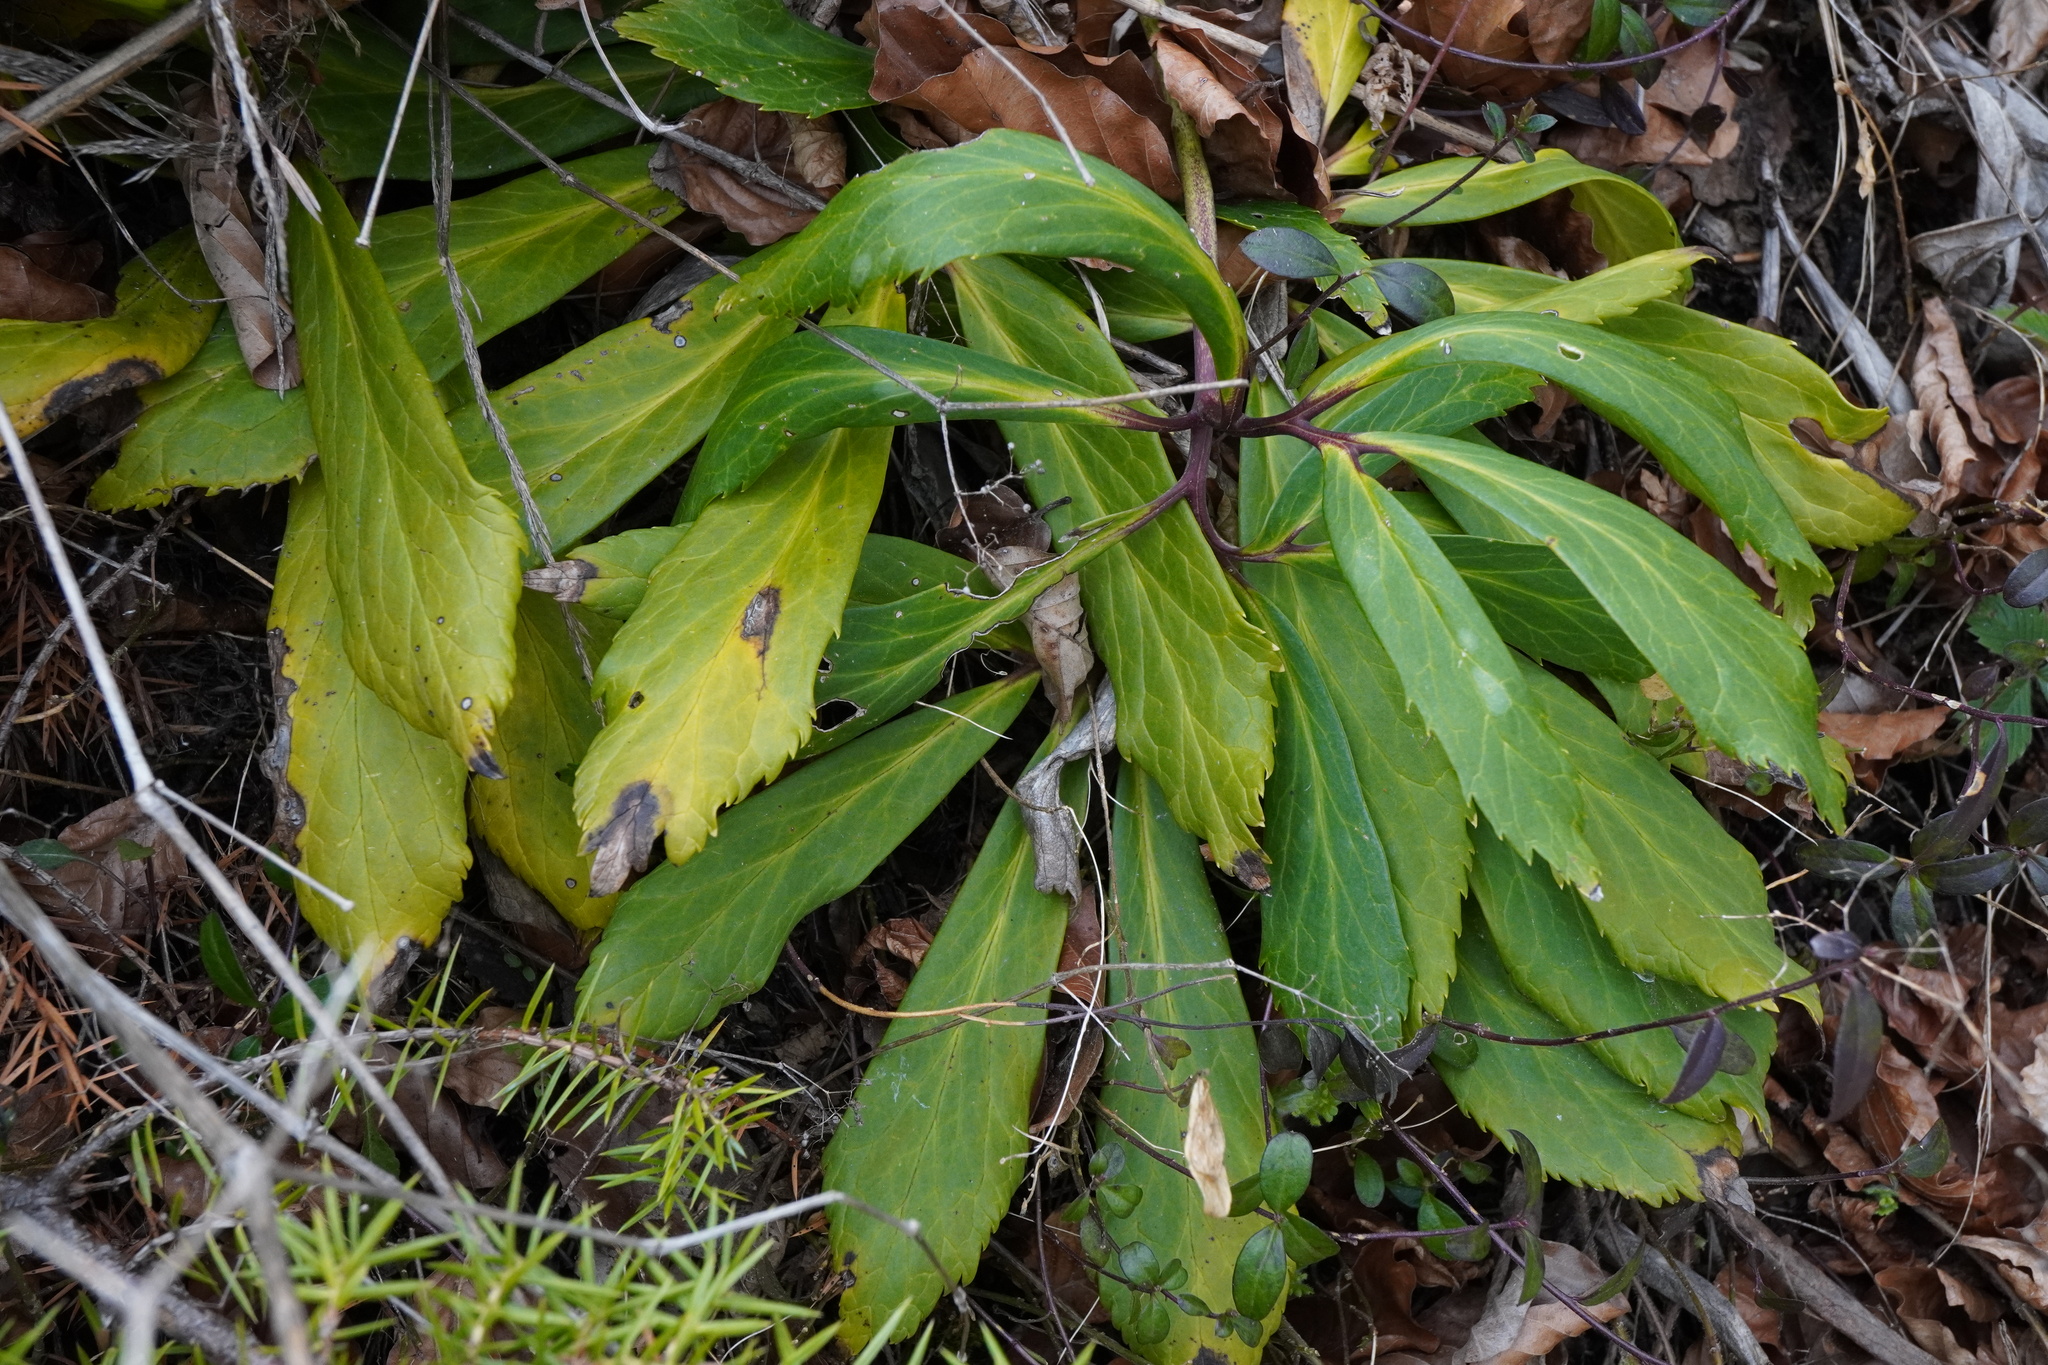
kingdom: Plantae
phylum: Tracheophyta
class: Magnoliopsida
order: Ranunculales
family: Ranunculaceae
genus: Helleborus
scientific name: Helleborus niger
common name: Black hellebore
